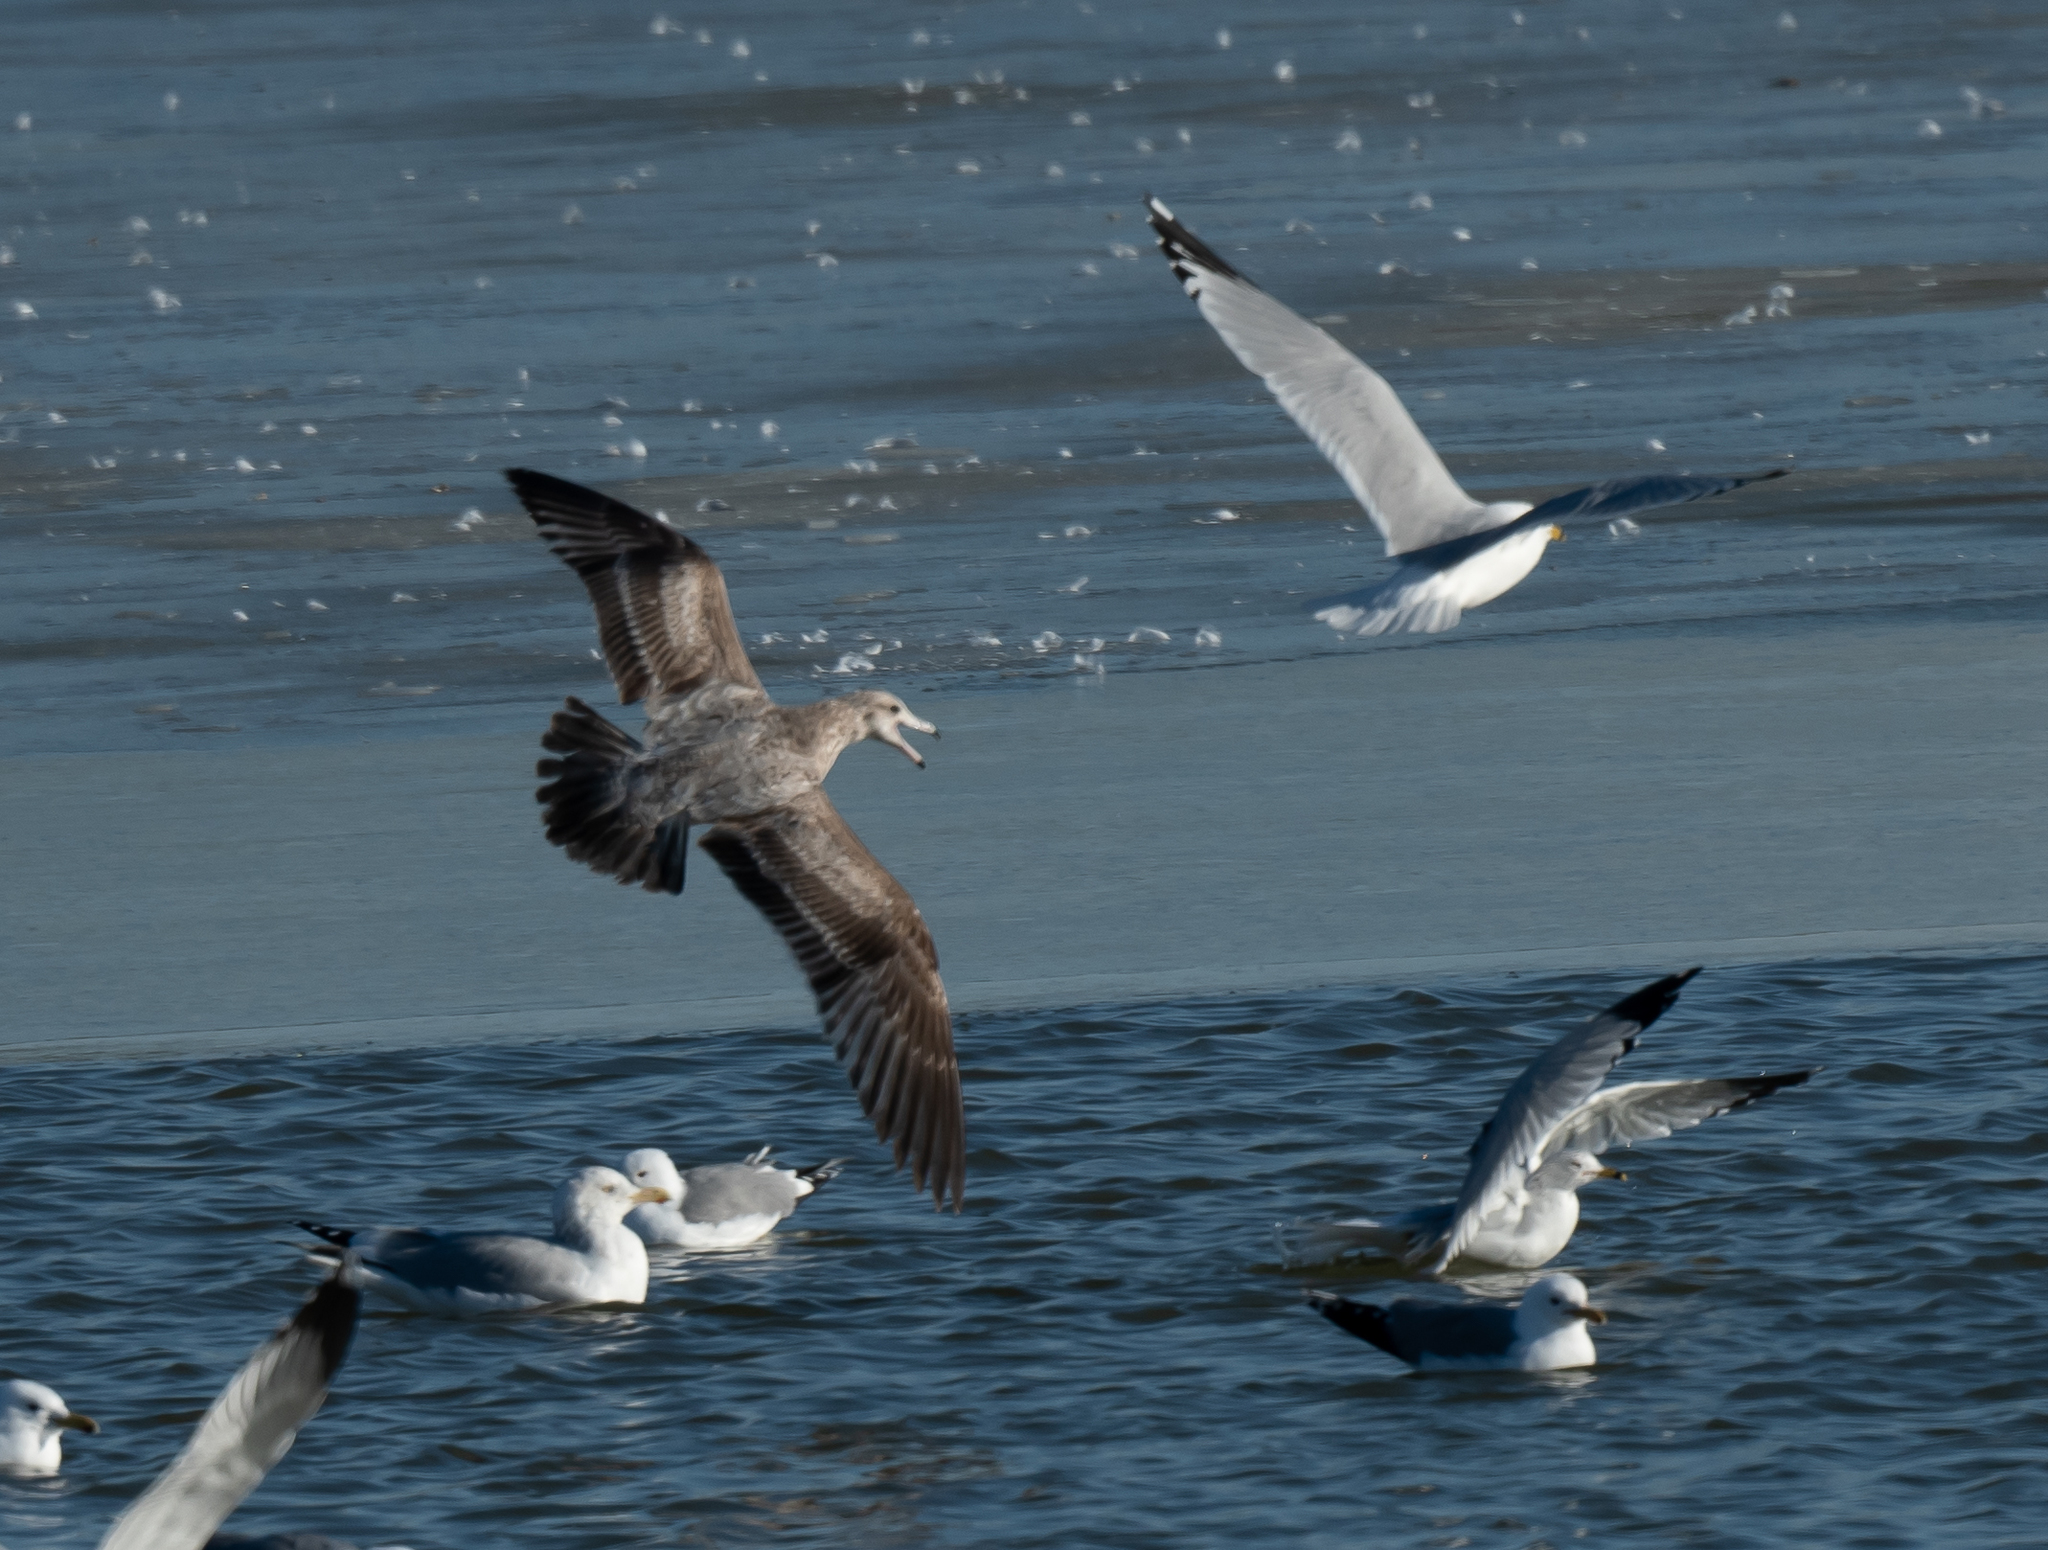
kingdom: Animalia
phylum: Chordata
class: Aves
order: Charadriiformes
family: Laridae
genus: Larus
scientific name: Larus californicus
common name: California gull
